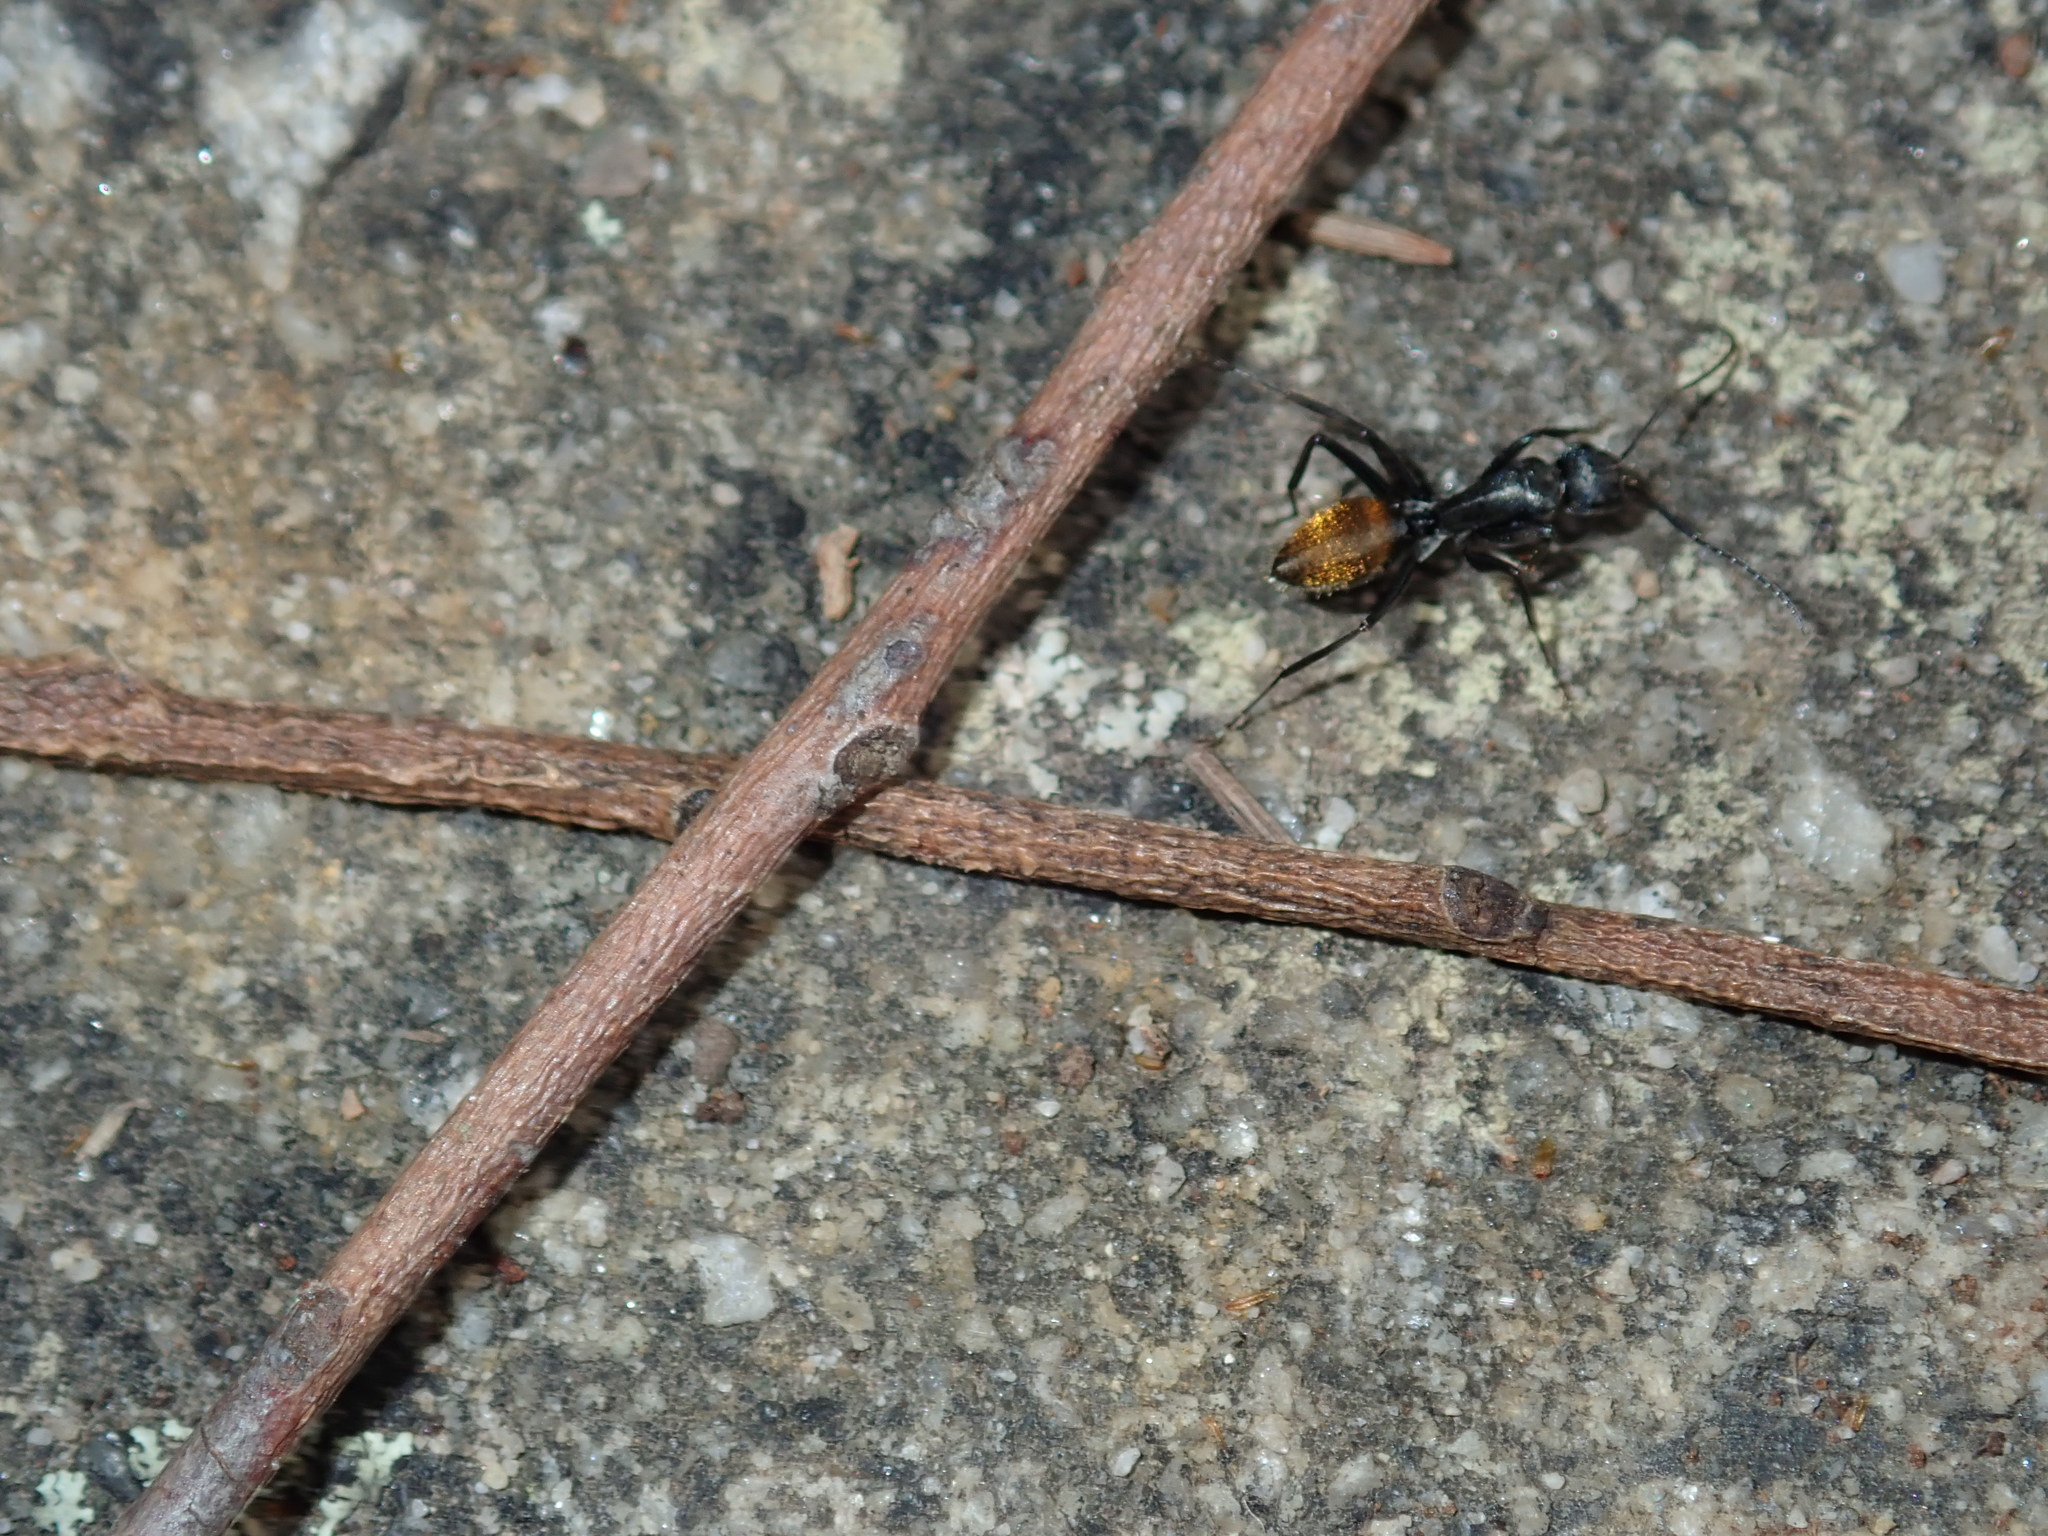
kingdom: Animalia
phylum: Arthropoda
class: Insecta
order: Hymenoptera
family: Formicidae
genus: Camponotus
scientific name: Camponotus aeneopilosus
